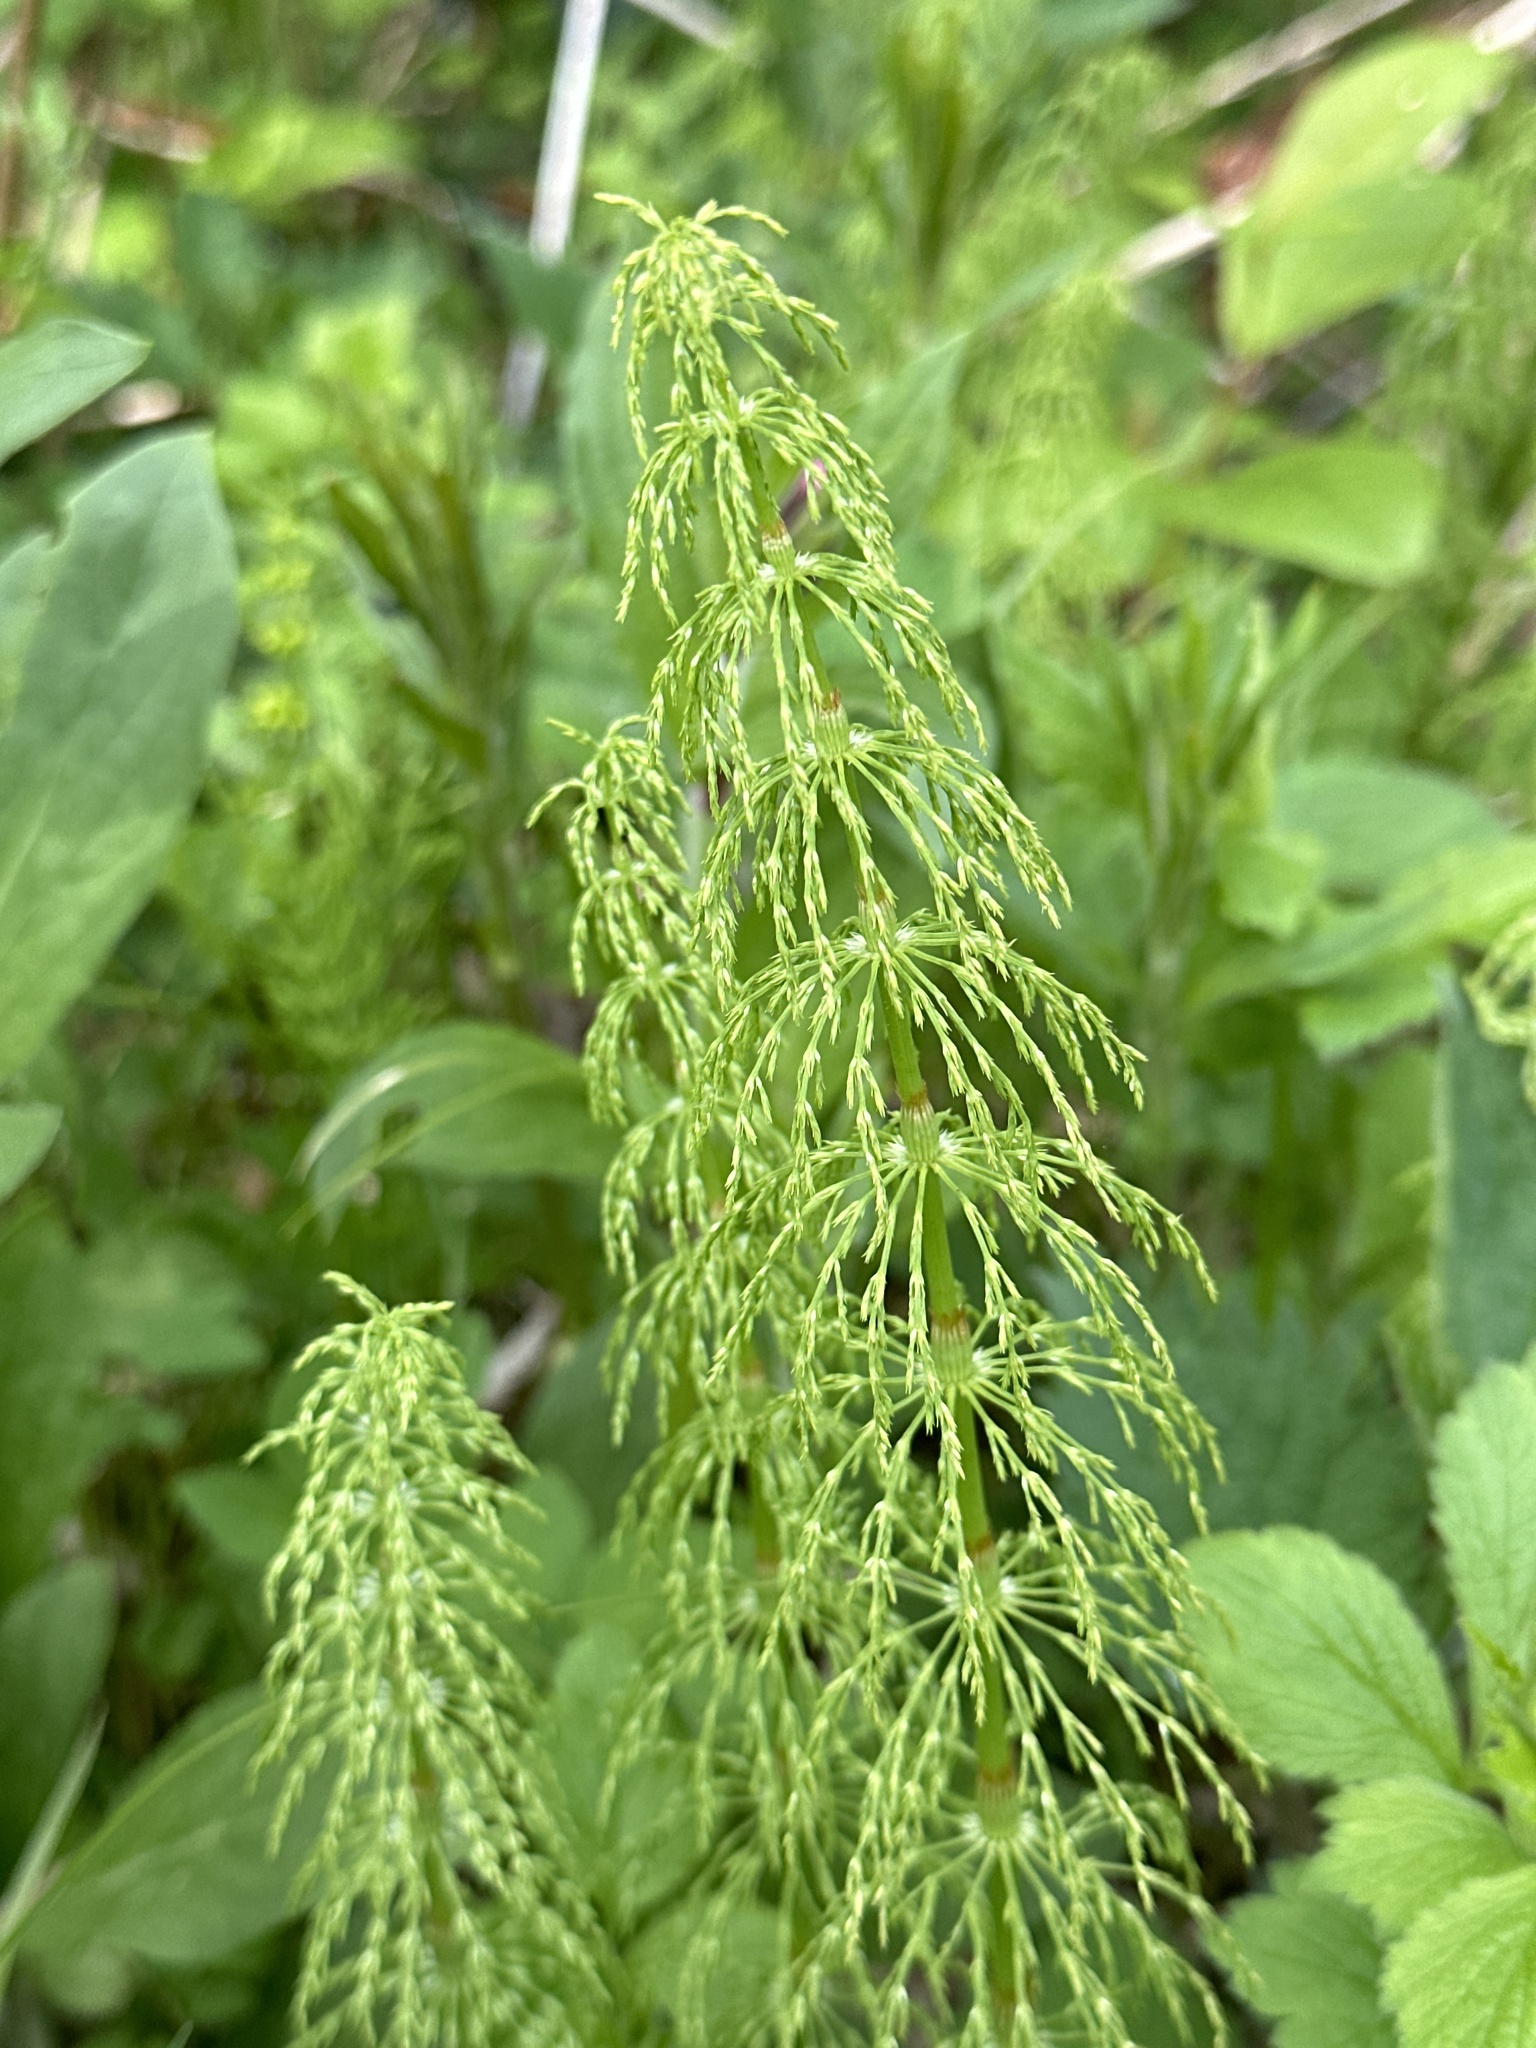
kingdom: Plantae
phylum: Tracheophyta
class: Polypodiopsida
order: Equisetales
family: Equisetaceae
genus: Equisetum
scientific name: Equisetum sylvaticum
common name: Wood horsetail
